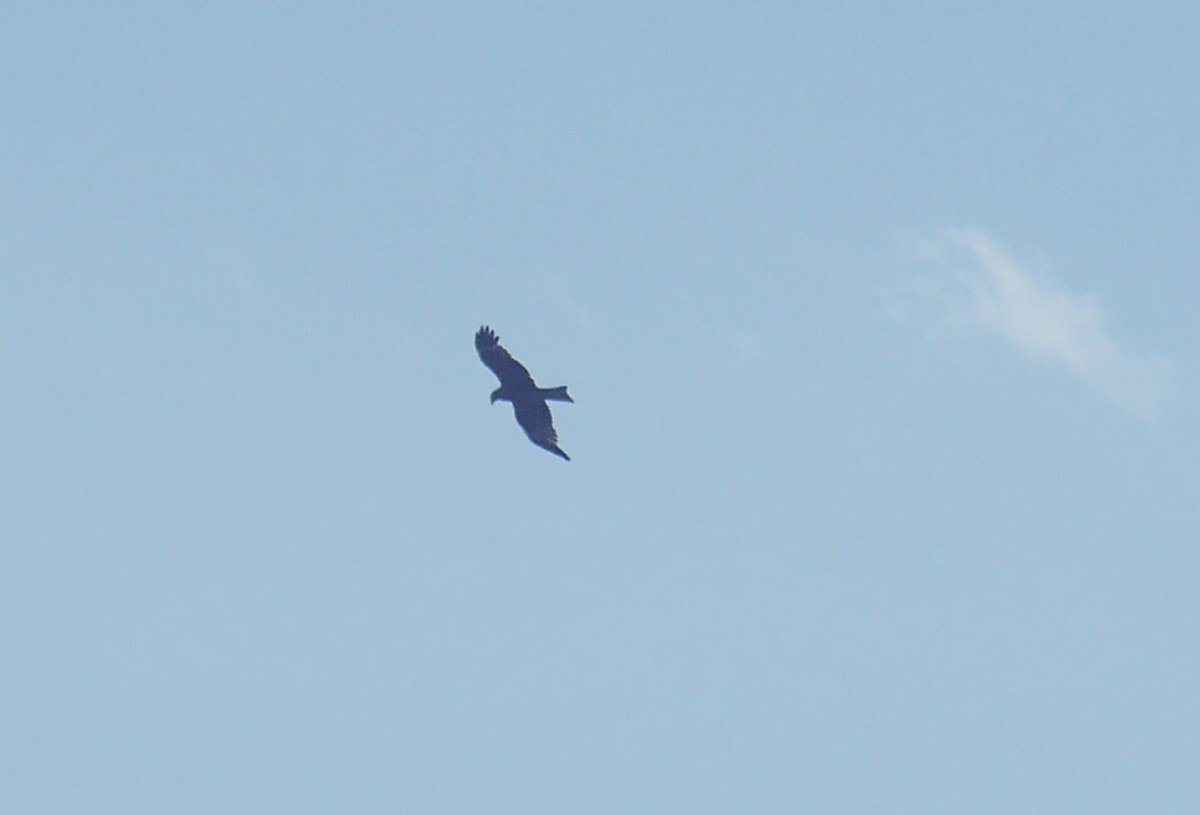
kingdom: Animalia
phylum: Chordata
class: Aves
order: Accipitriformes
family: Accipitridae
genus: Milvus
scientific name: Milvus migrans
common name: Black kite
